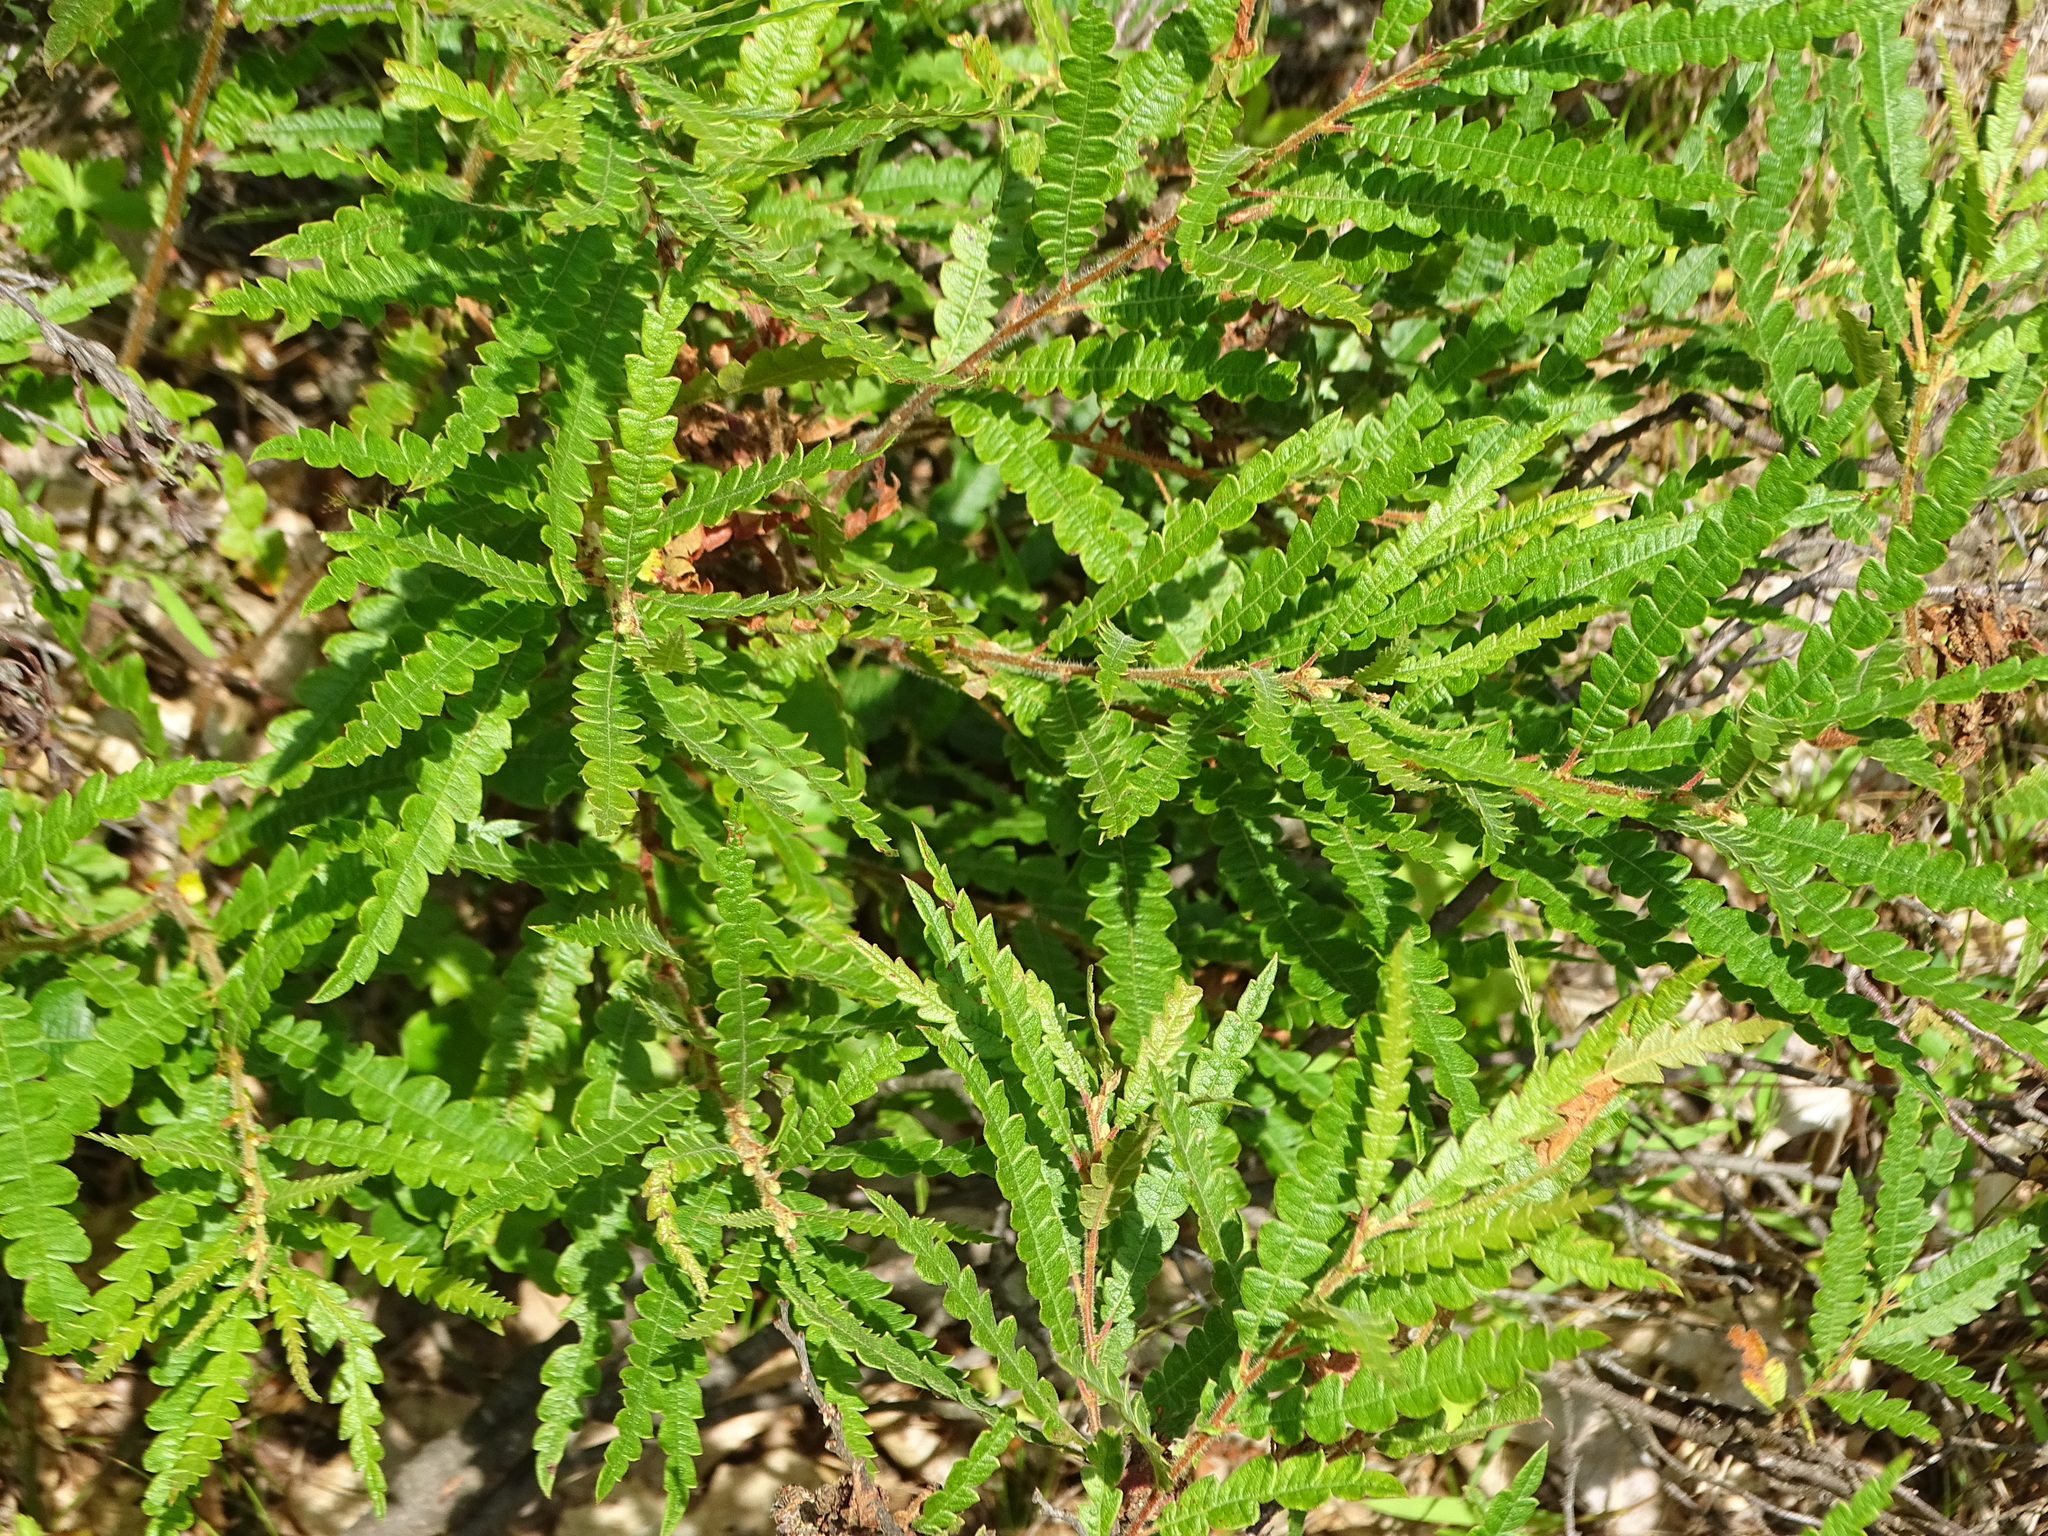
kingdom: Plantae
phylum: Tracheophyta
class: Magnoliopsida
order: Fagales
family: Myricaceae
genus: Comptonia
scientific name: Comptonia peregrina
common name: Sweet-fern
